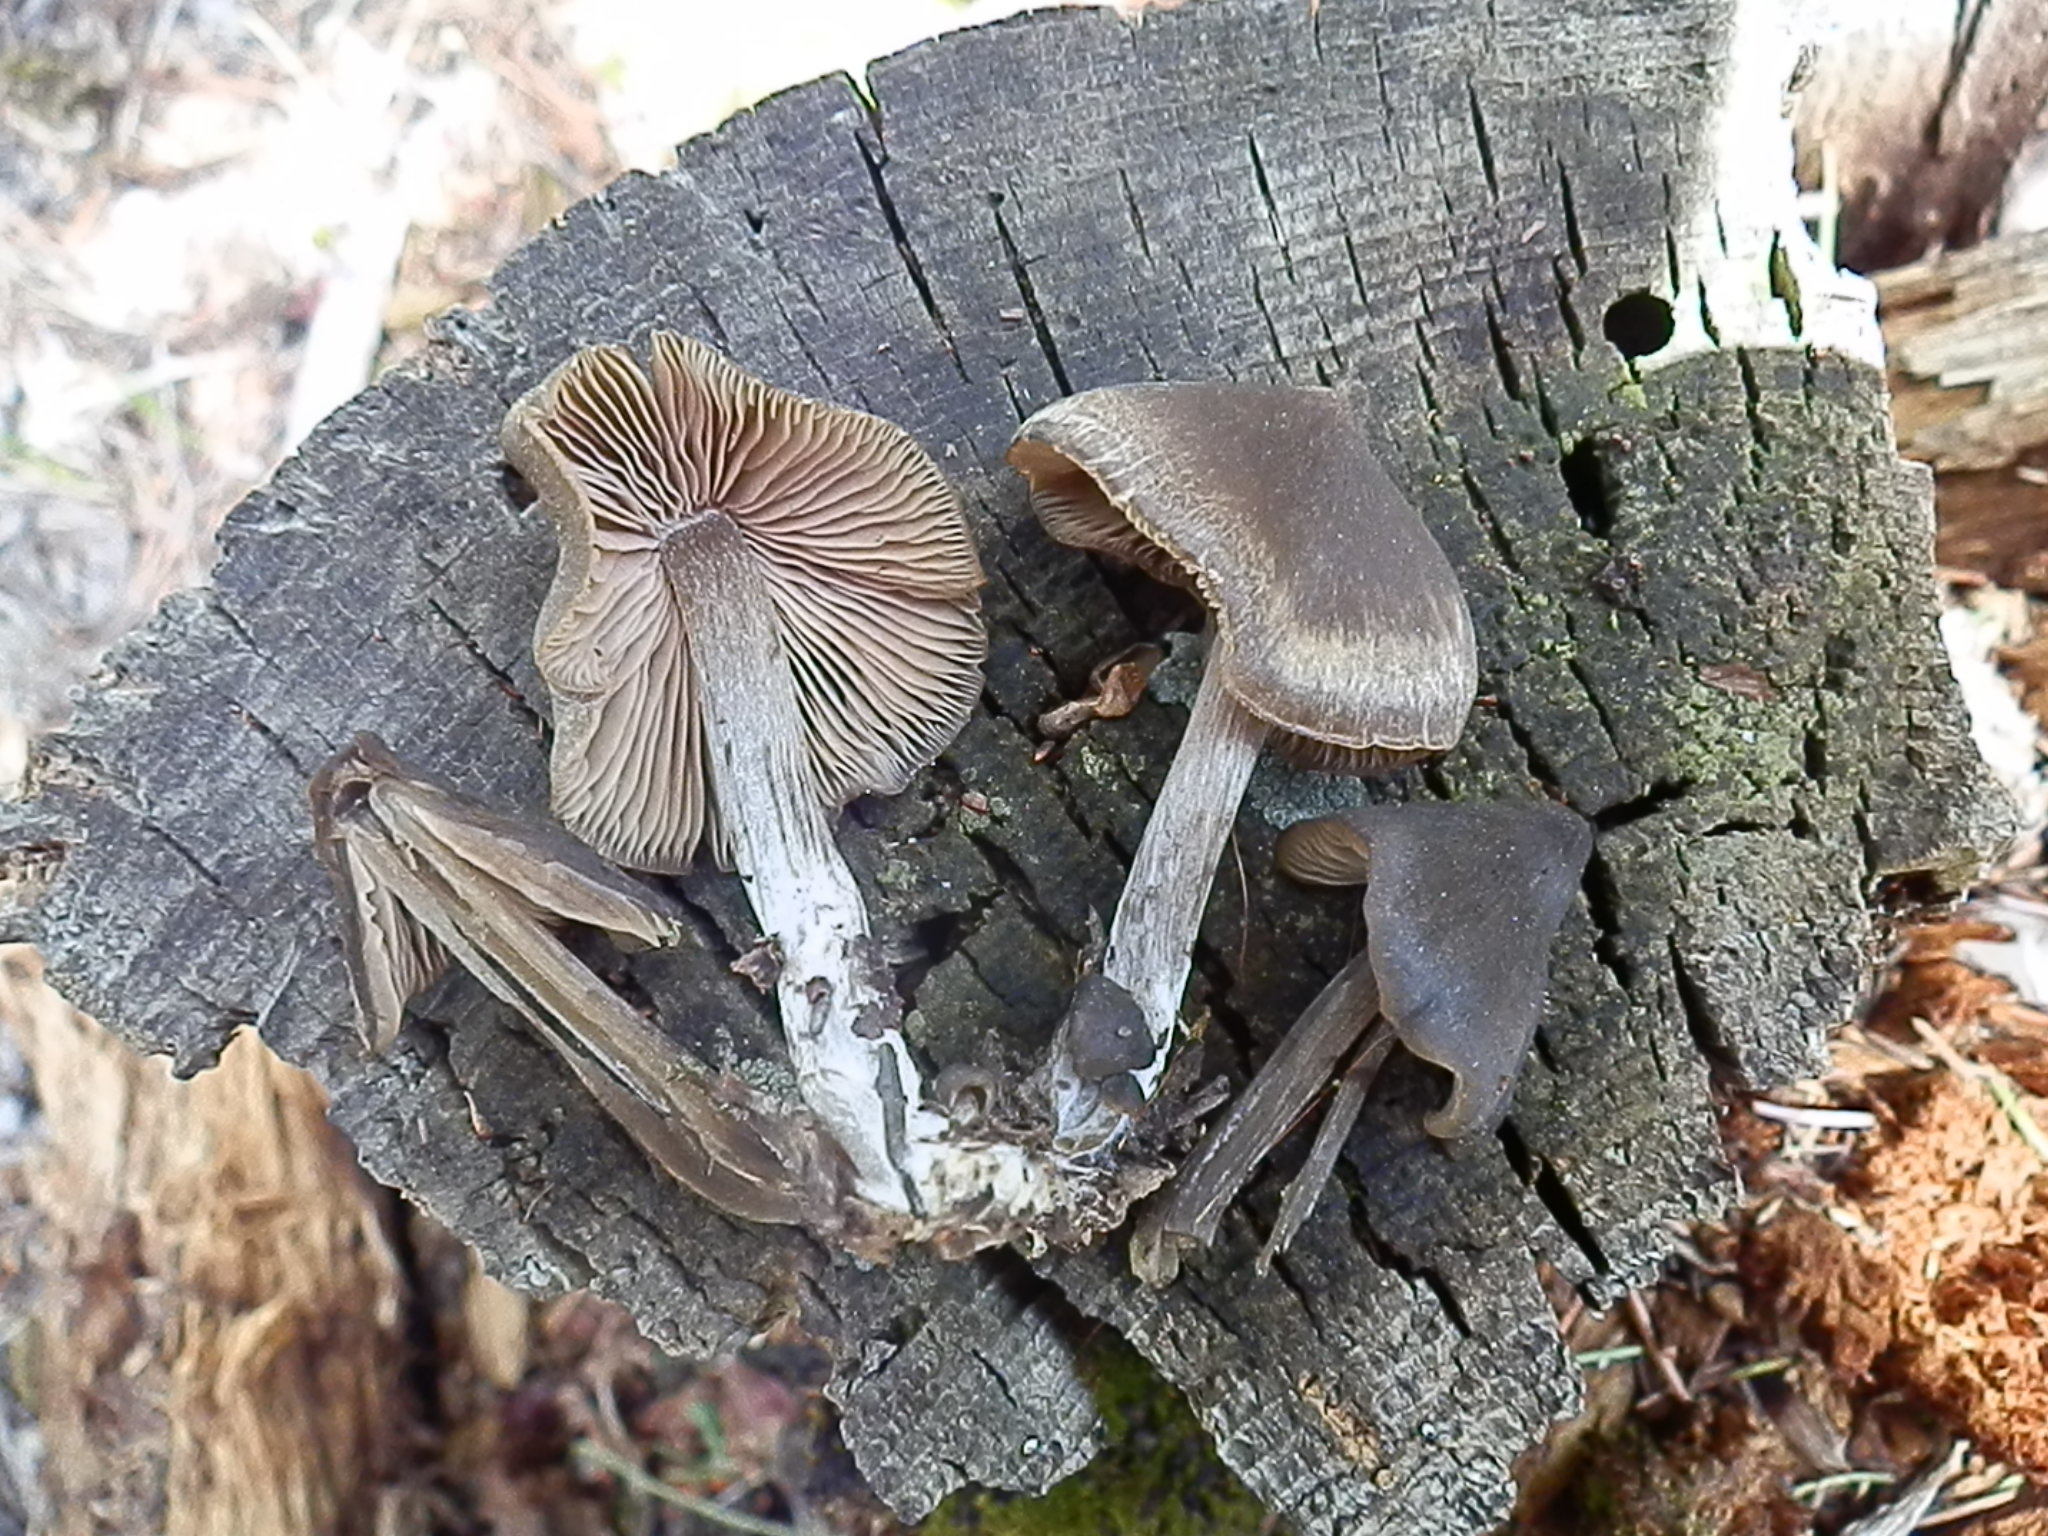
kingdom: Fungi
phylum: Basidiomycota
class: Agaricomycetes
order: Agaricales
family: Entolomataceae
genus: Entoloma
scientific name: Entoloma vernum
